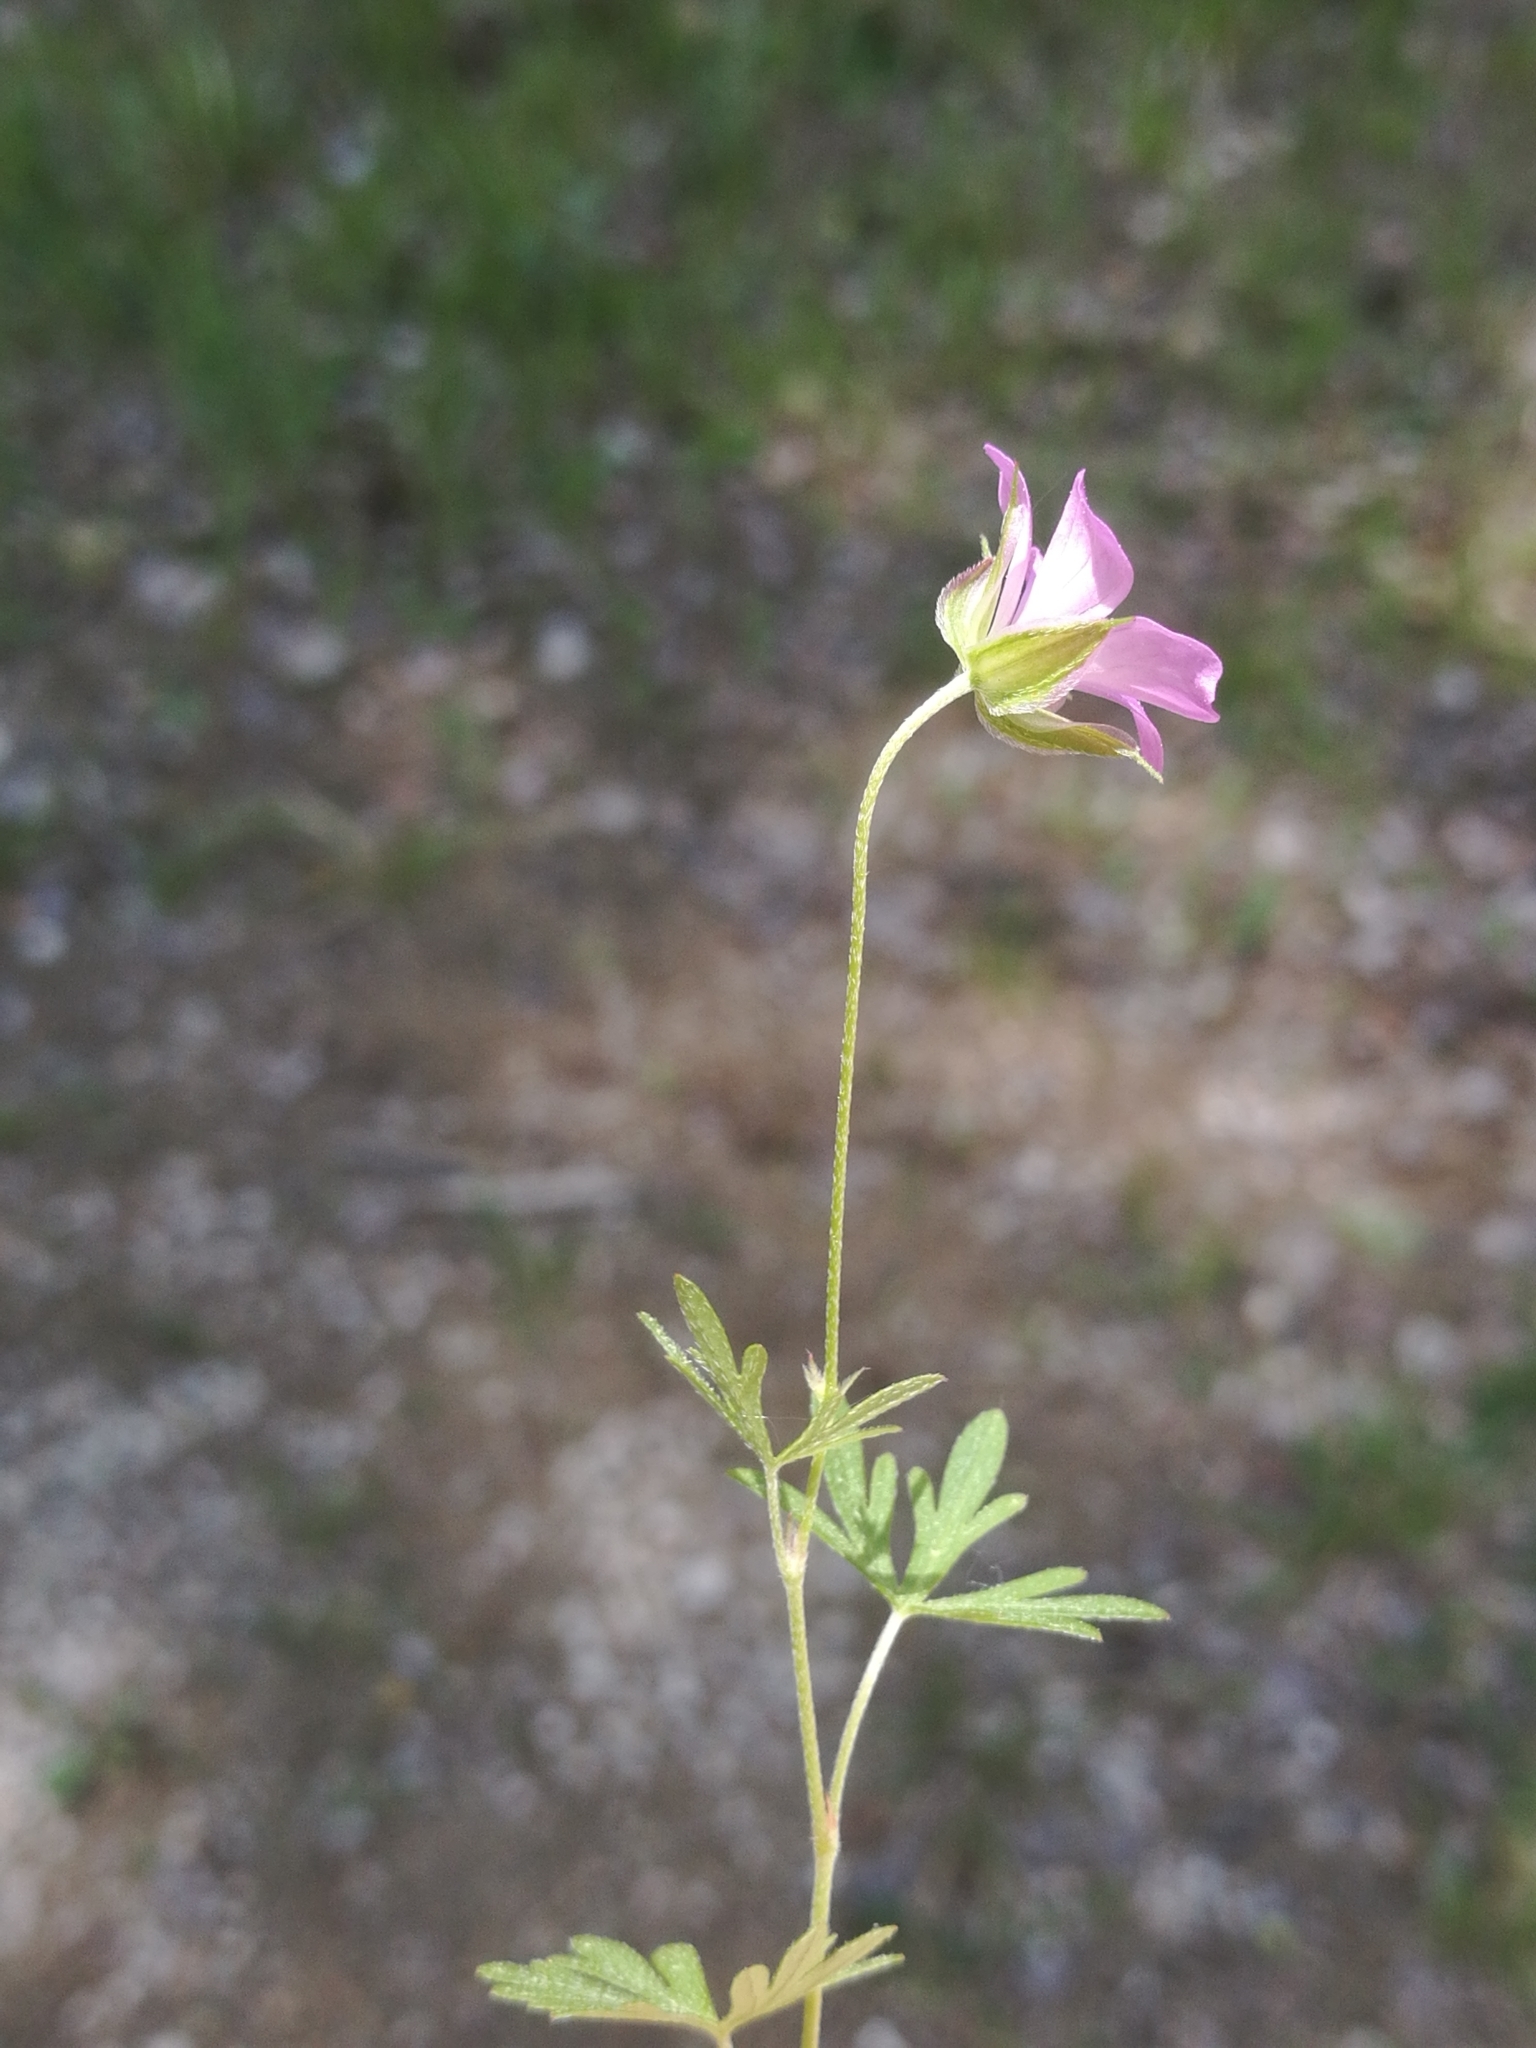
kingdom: Plantae
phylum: Tracheophyta
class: Magnoliopsida
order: Geraniales
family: Geraniaceae
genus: Geranium
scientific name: Geranium columbinum
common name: Long-stalked crane's-bill
